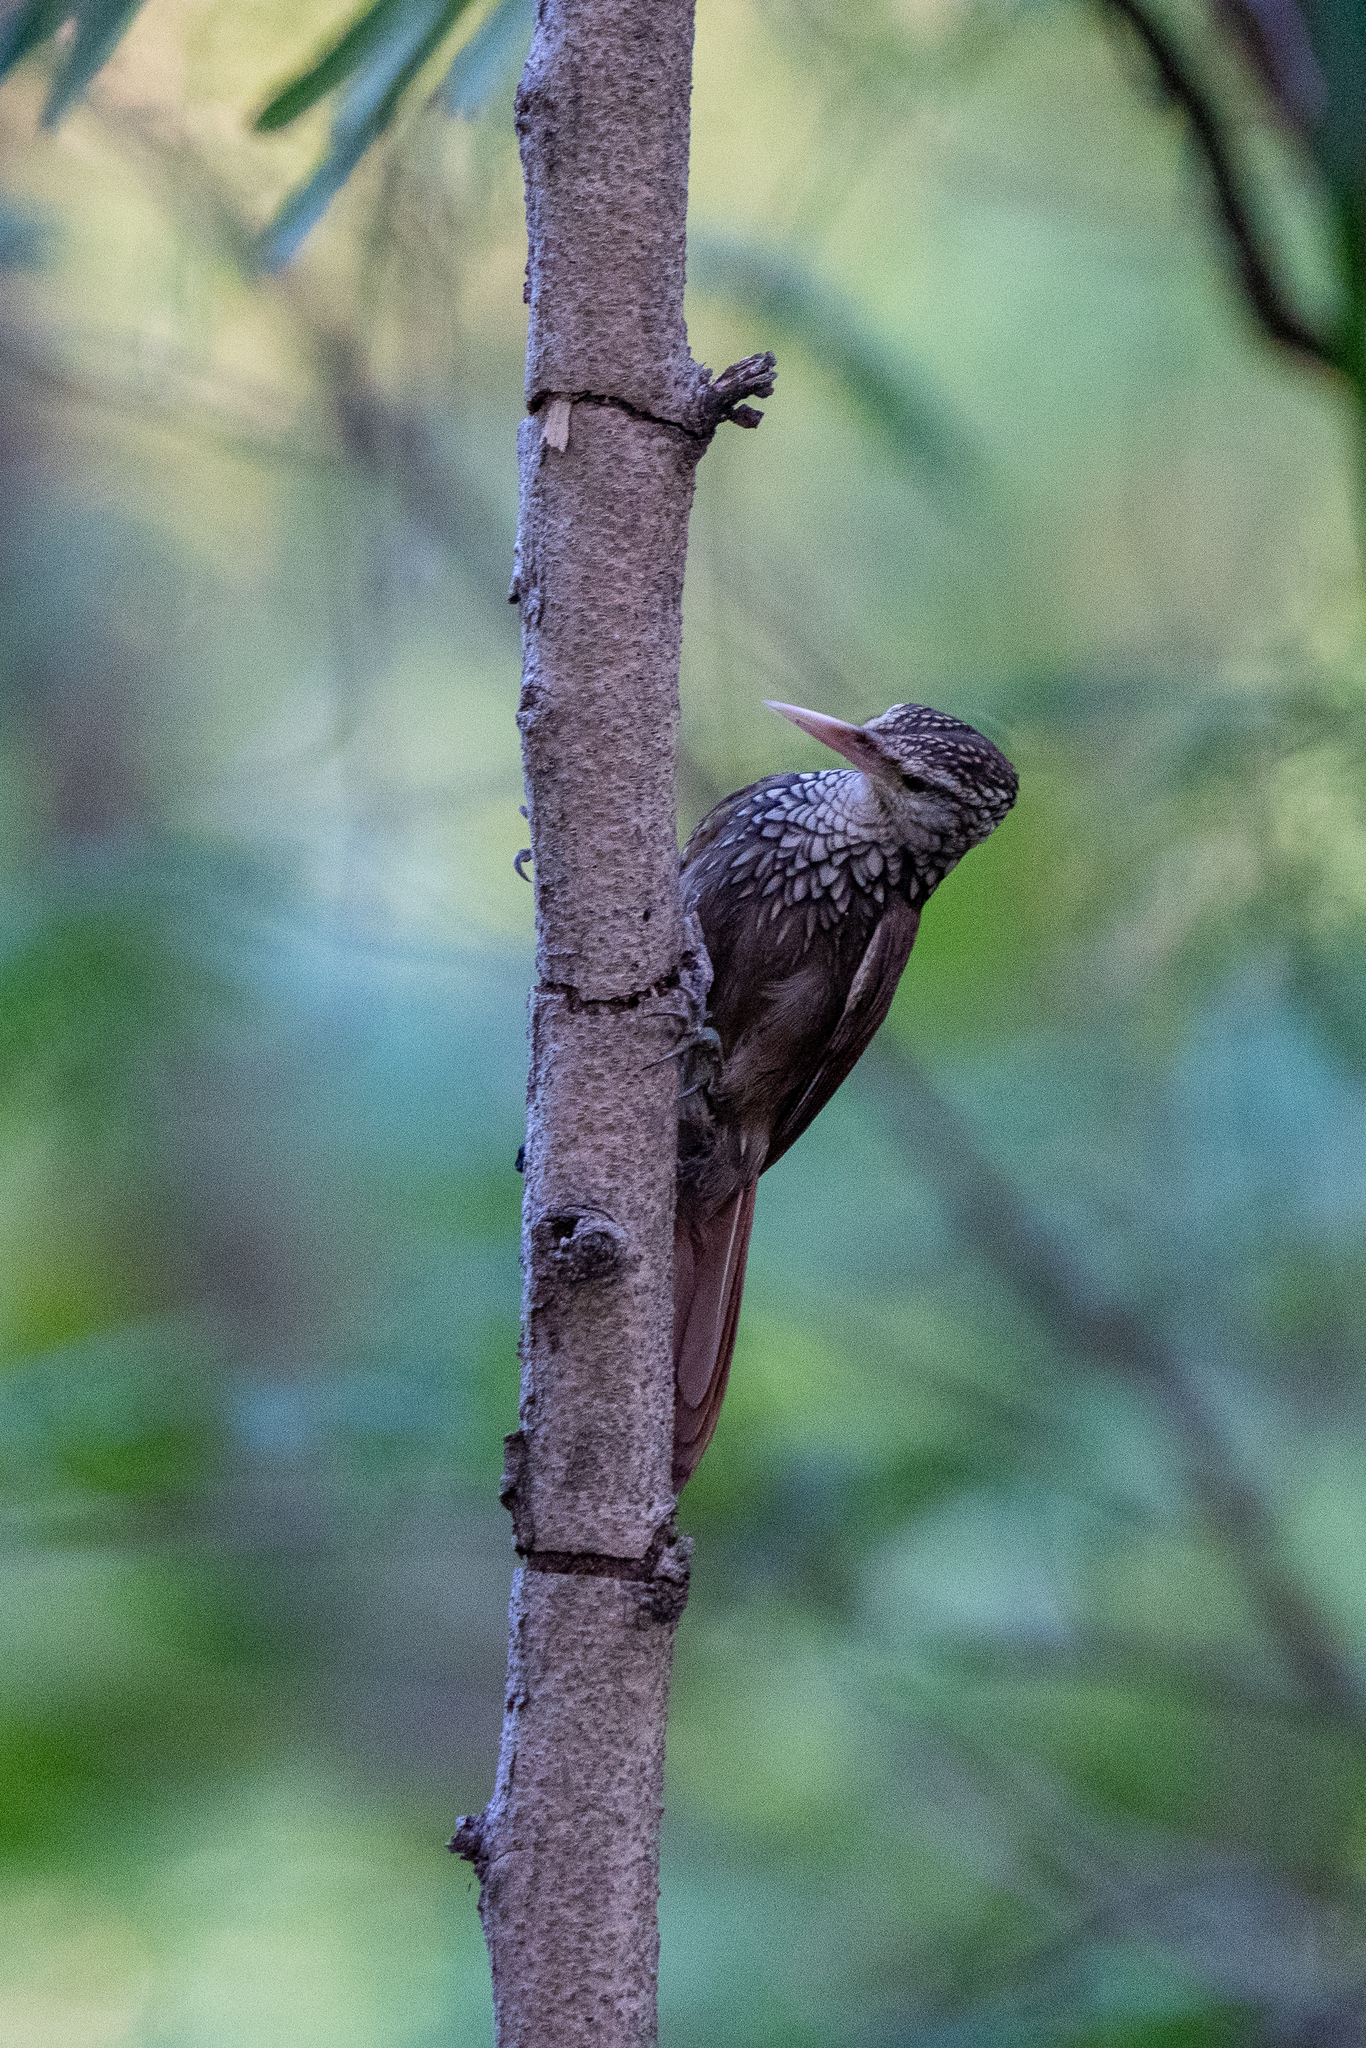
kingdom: Animalia
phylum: Chordata
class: Aves
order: Passeriformes
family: Furnariidae
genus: Xiphorhynchus
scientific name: Xiphorhynchus picus
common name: Straight-billed woodcreeper
